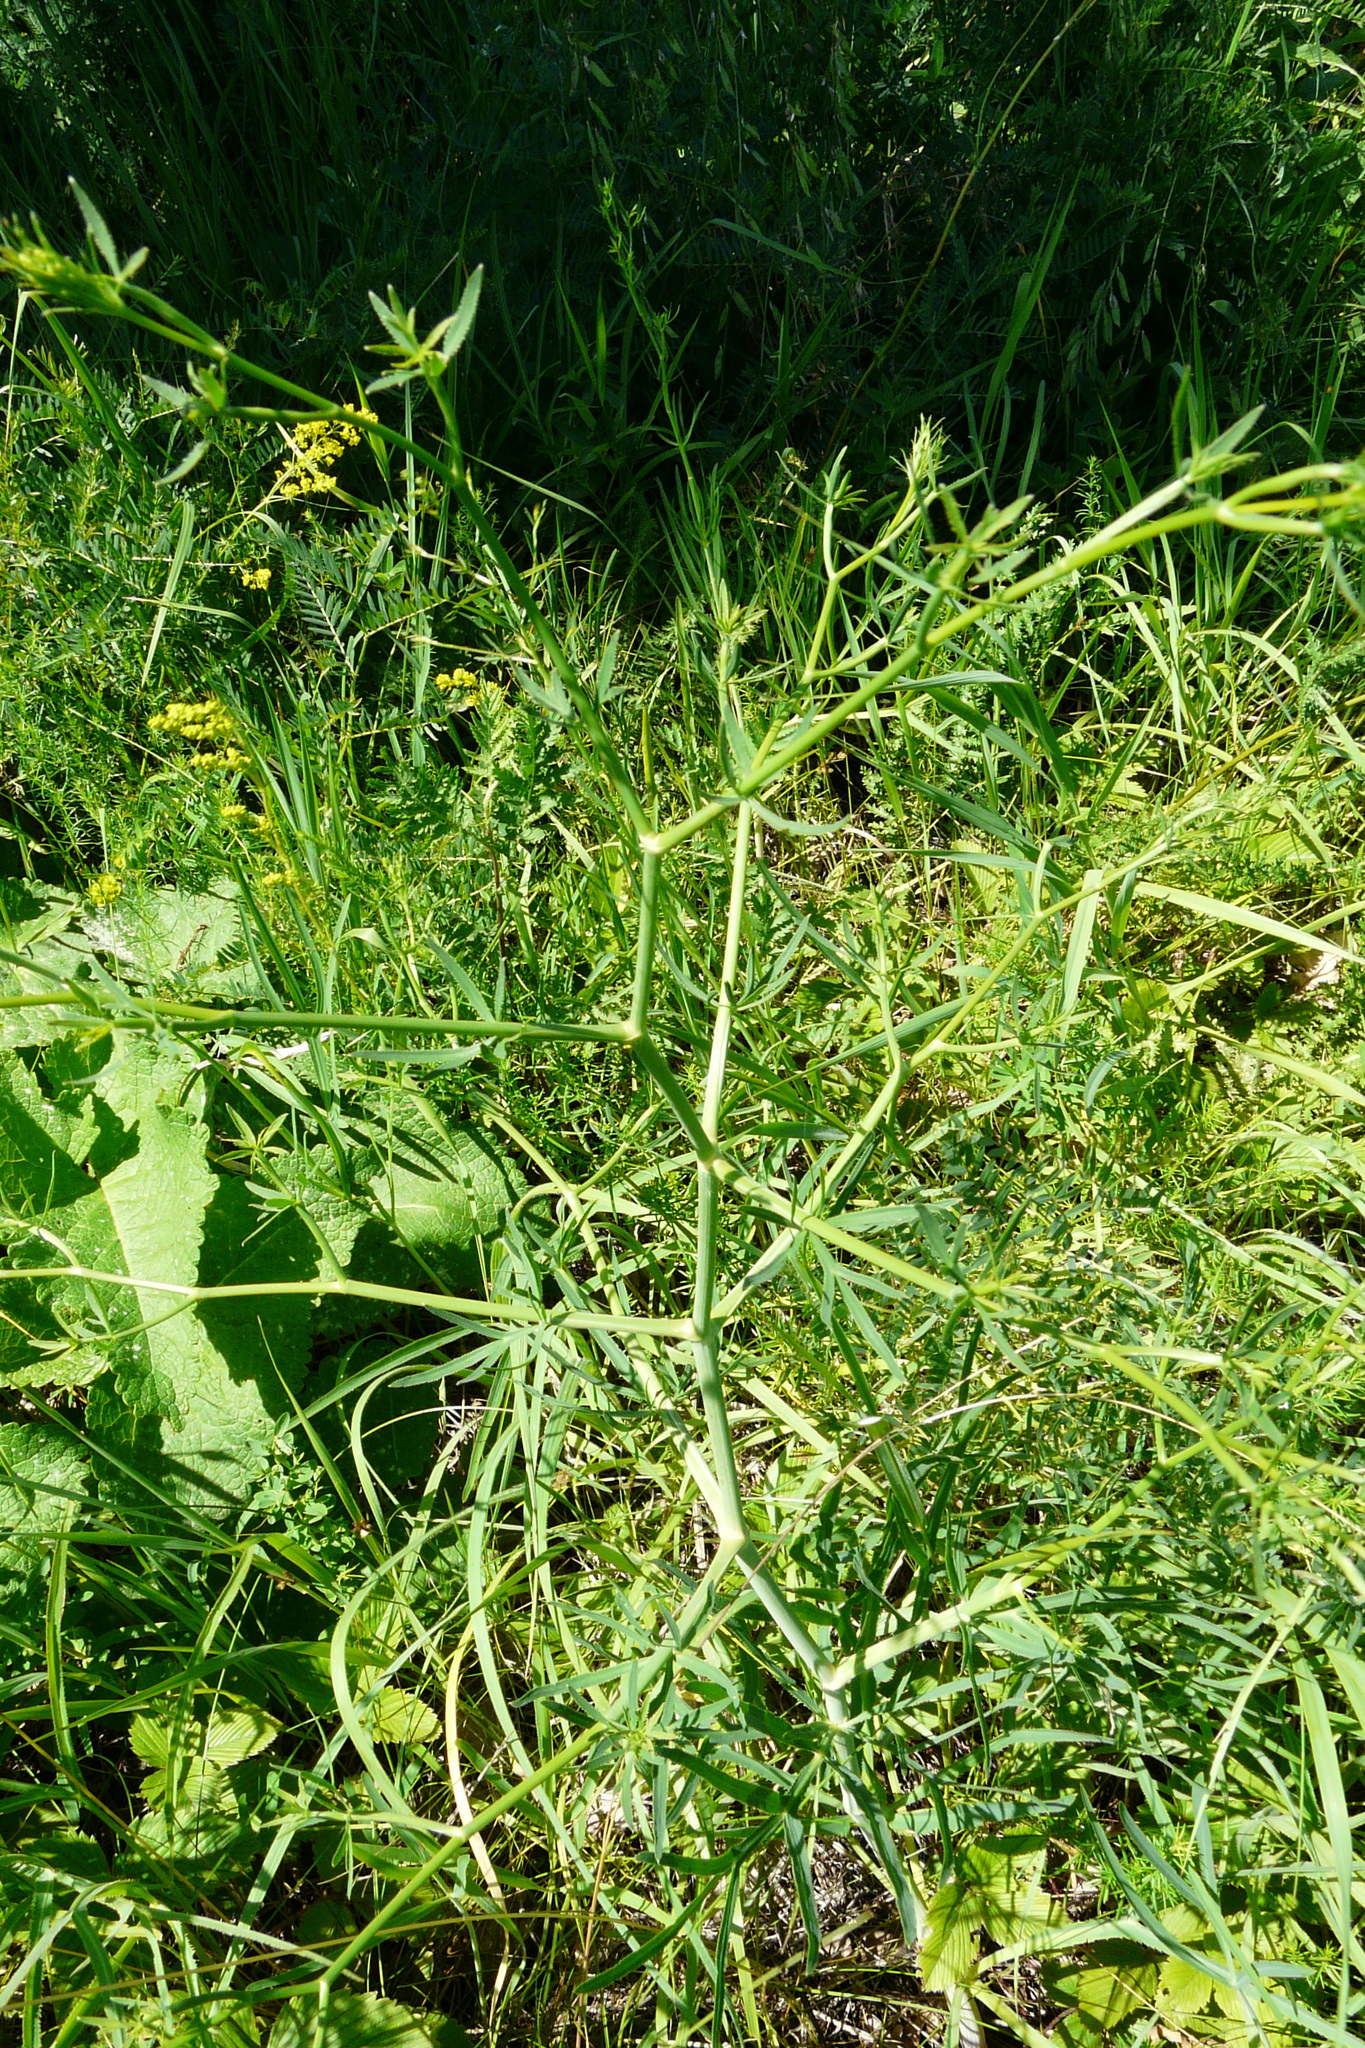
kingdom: Plantae
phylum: Tracheophyta
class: Magnoliopsida
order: Apiales
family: Apiaceae
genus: Falcaria
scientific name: Falcaria vulgaris
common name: Longleaf
